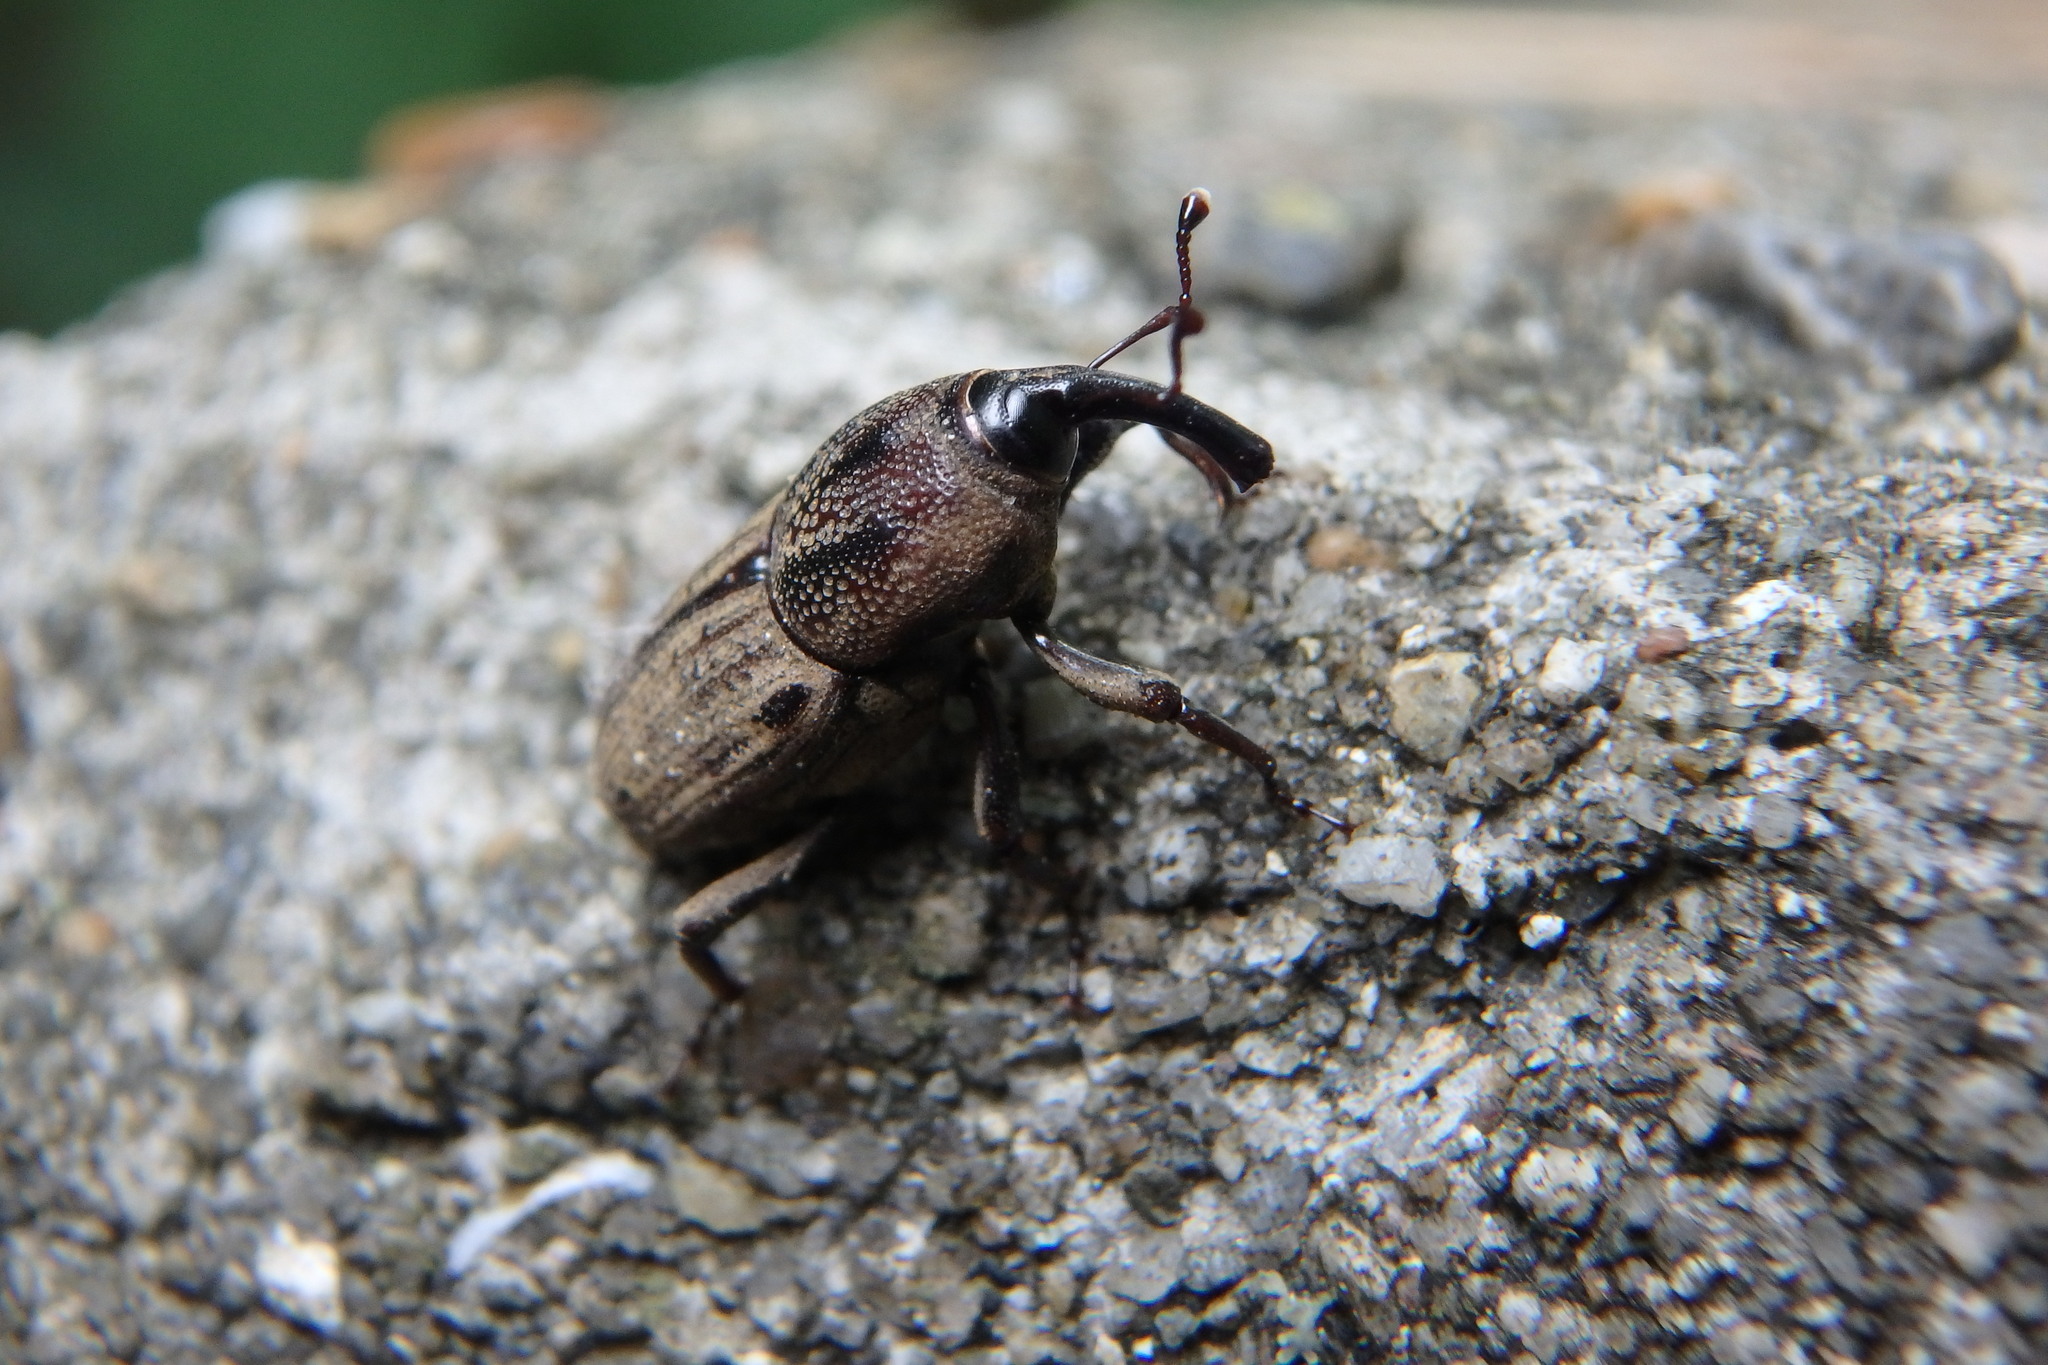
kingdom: Animalia
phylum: Arthropoda
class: Insecta
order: Coleoptera
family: Dryophthoridae
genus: Sphenophorus
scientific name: Sphenophorus venatus
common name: Hunting billbug
